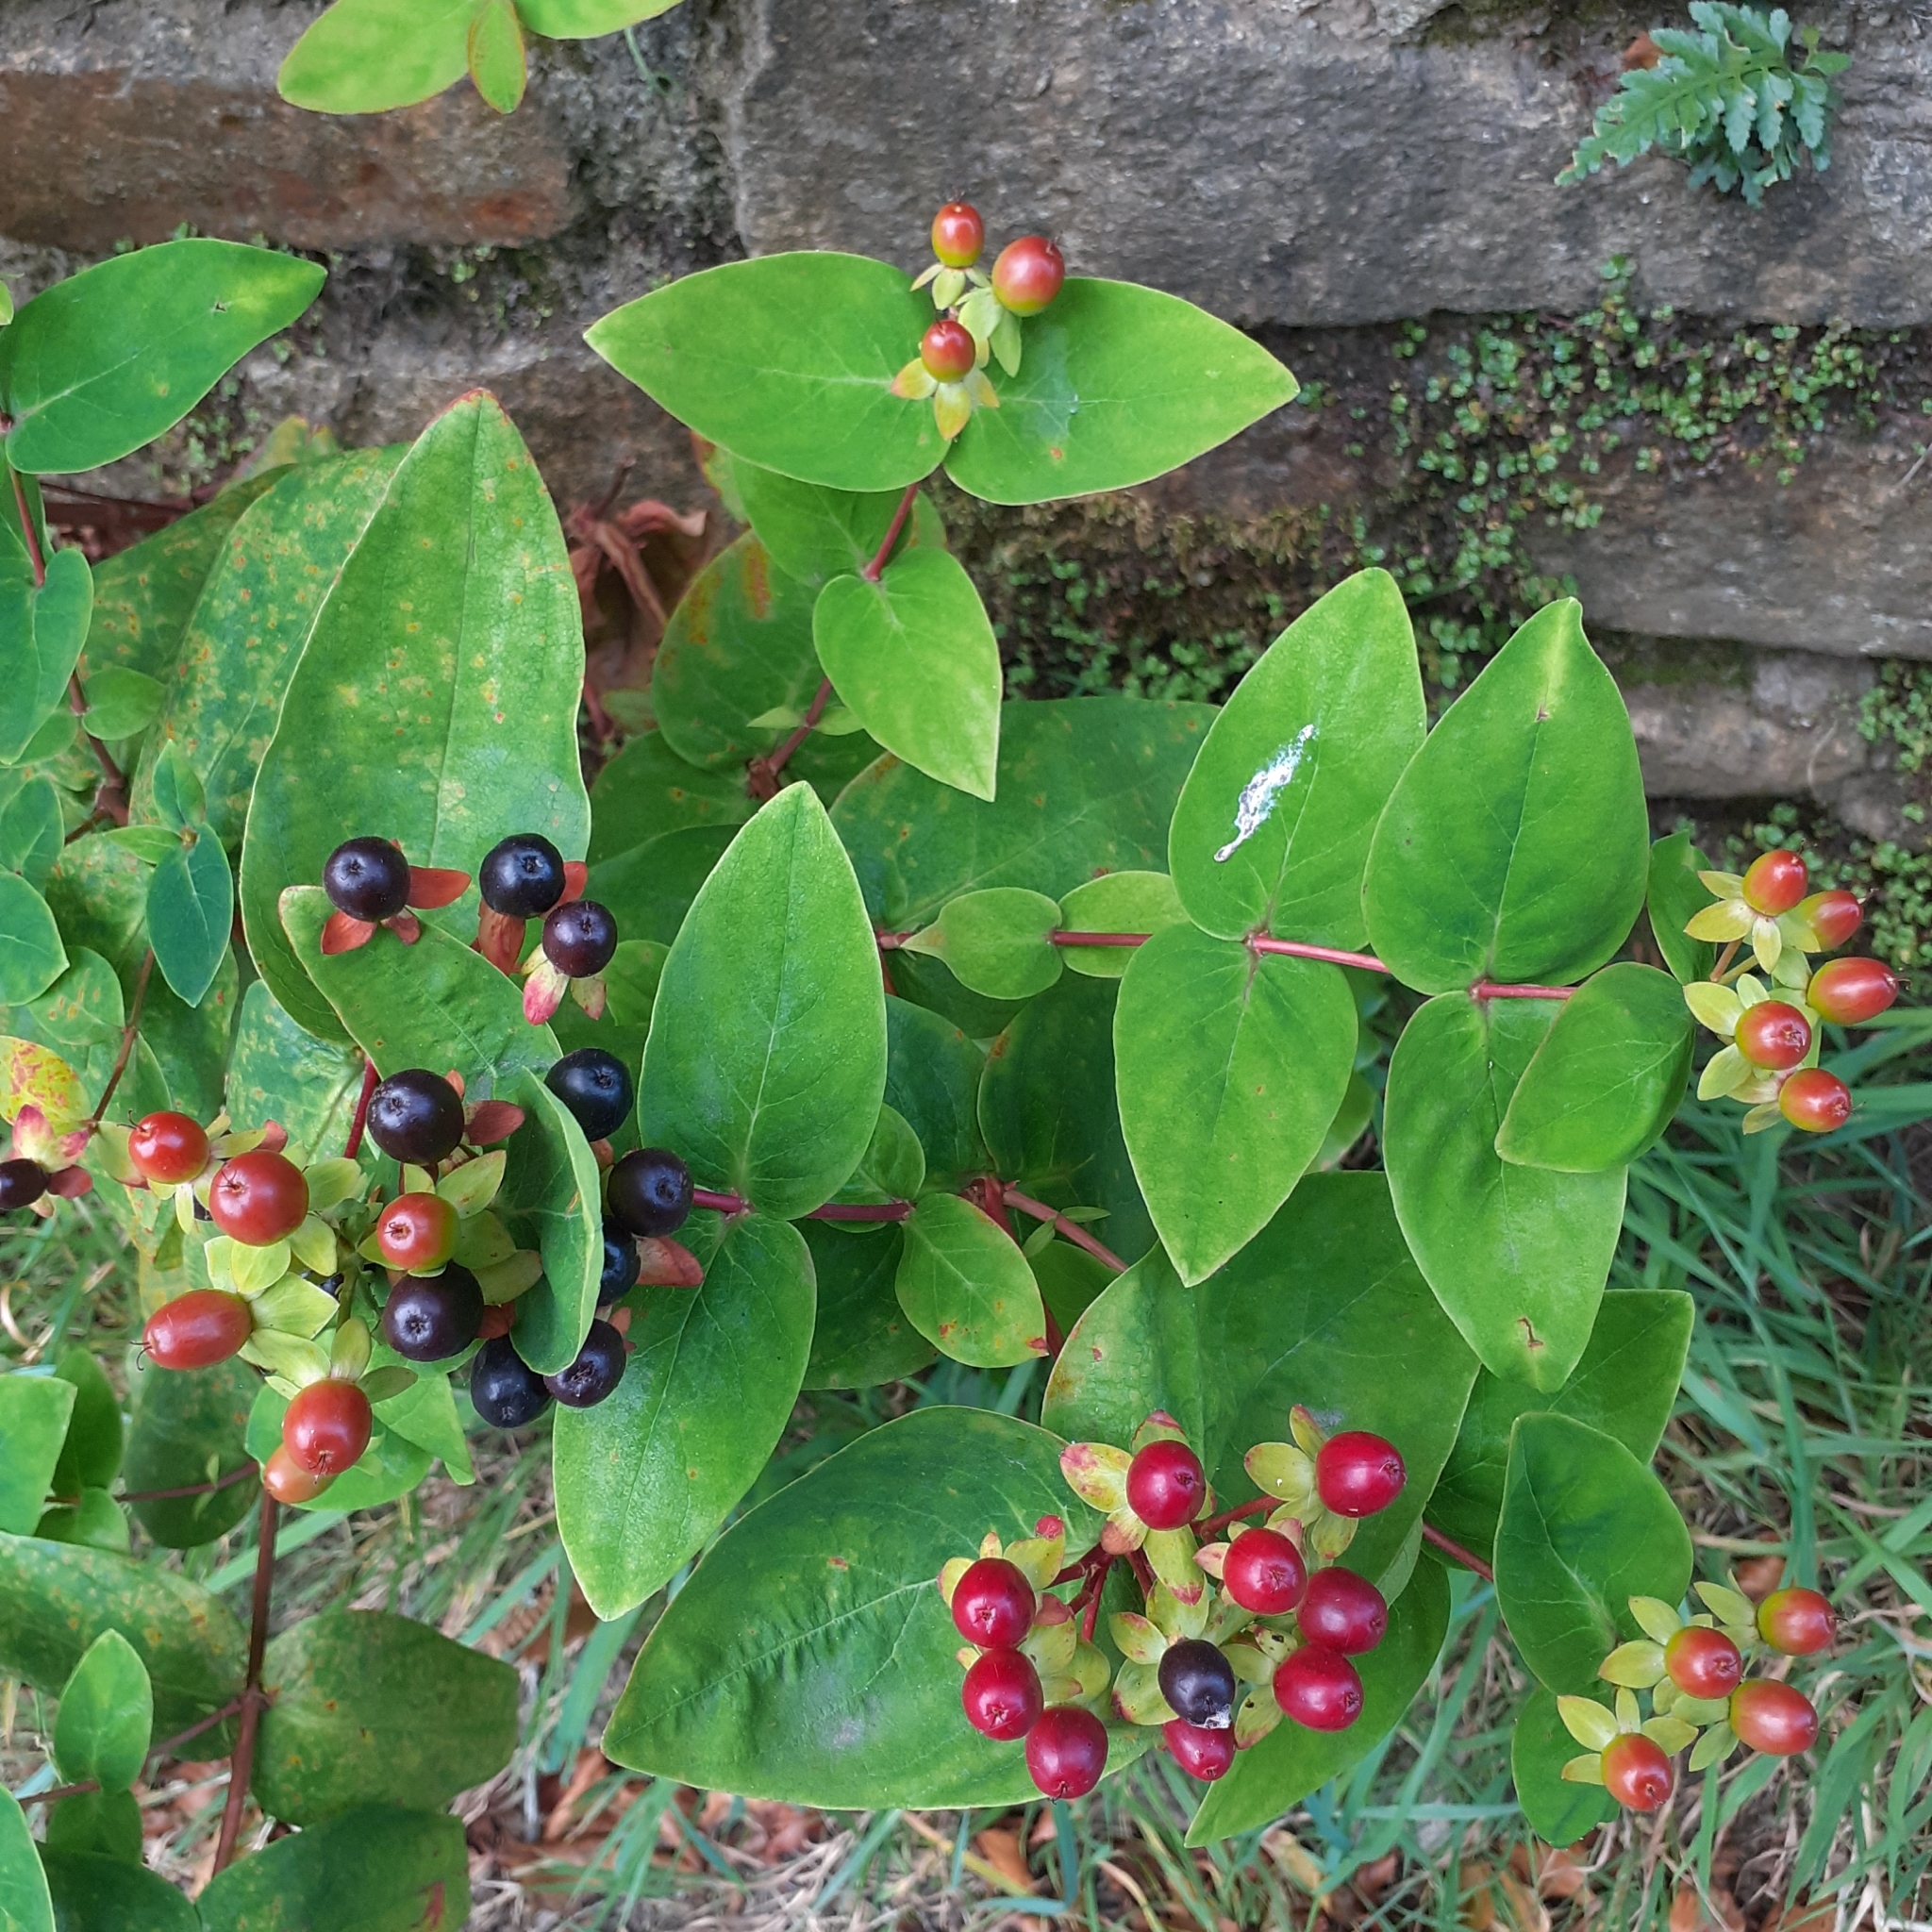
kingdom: Plantae
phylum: Tracheophyta
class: Magnoliopsida
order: Malpighiales
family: Hypericaceae
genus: Hypericum
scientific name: Hypericum androsaemum
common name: Sweet-amber
